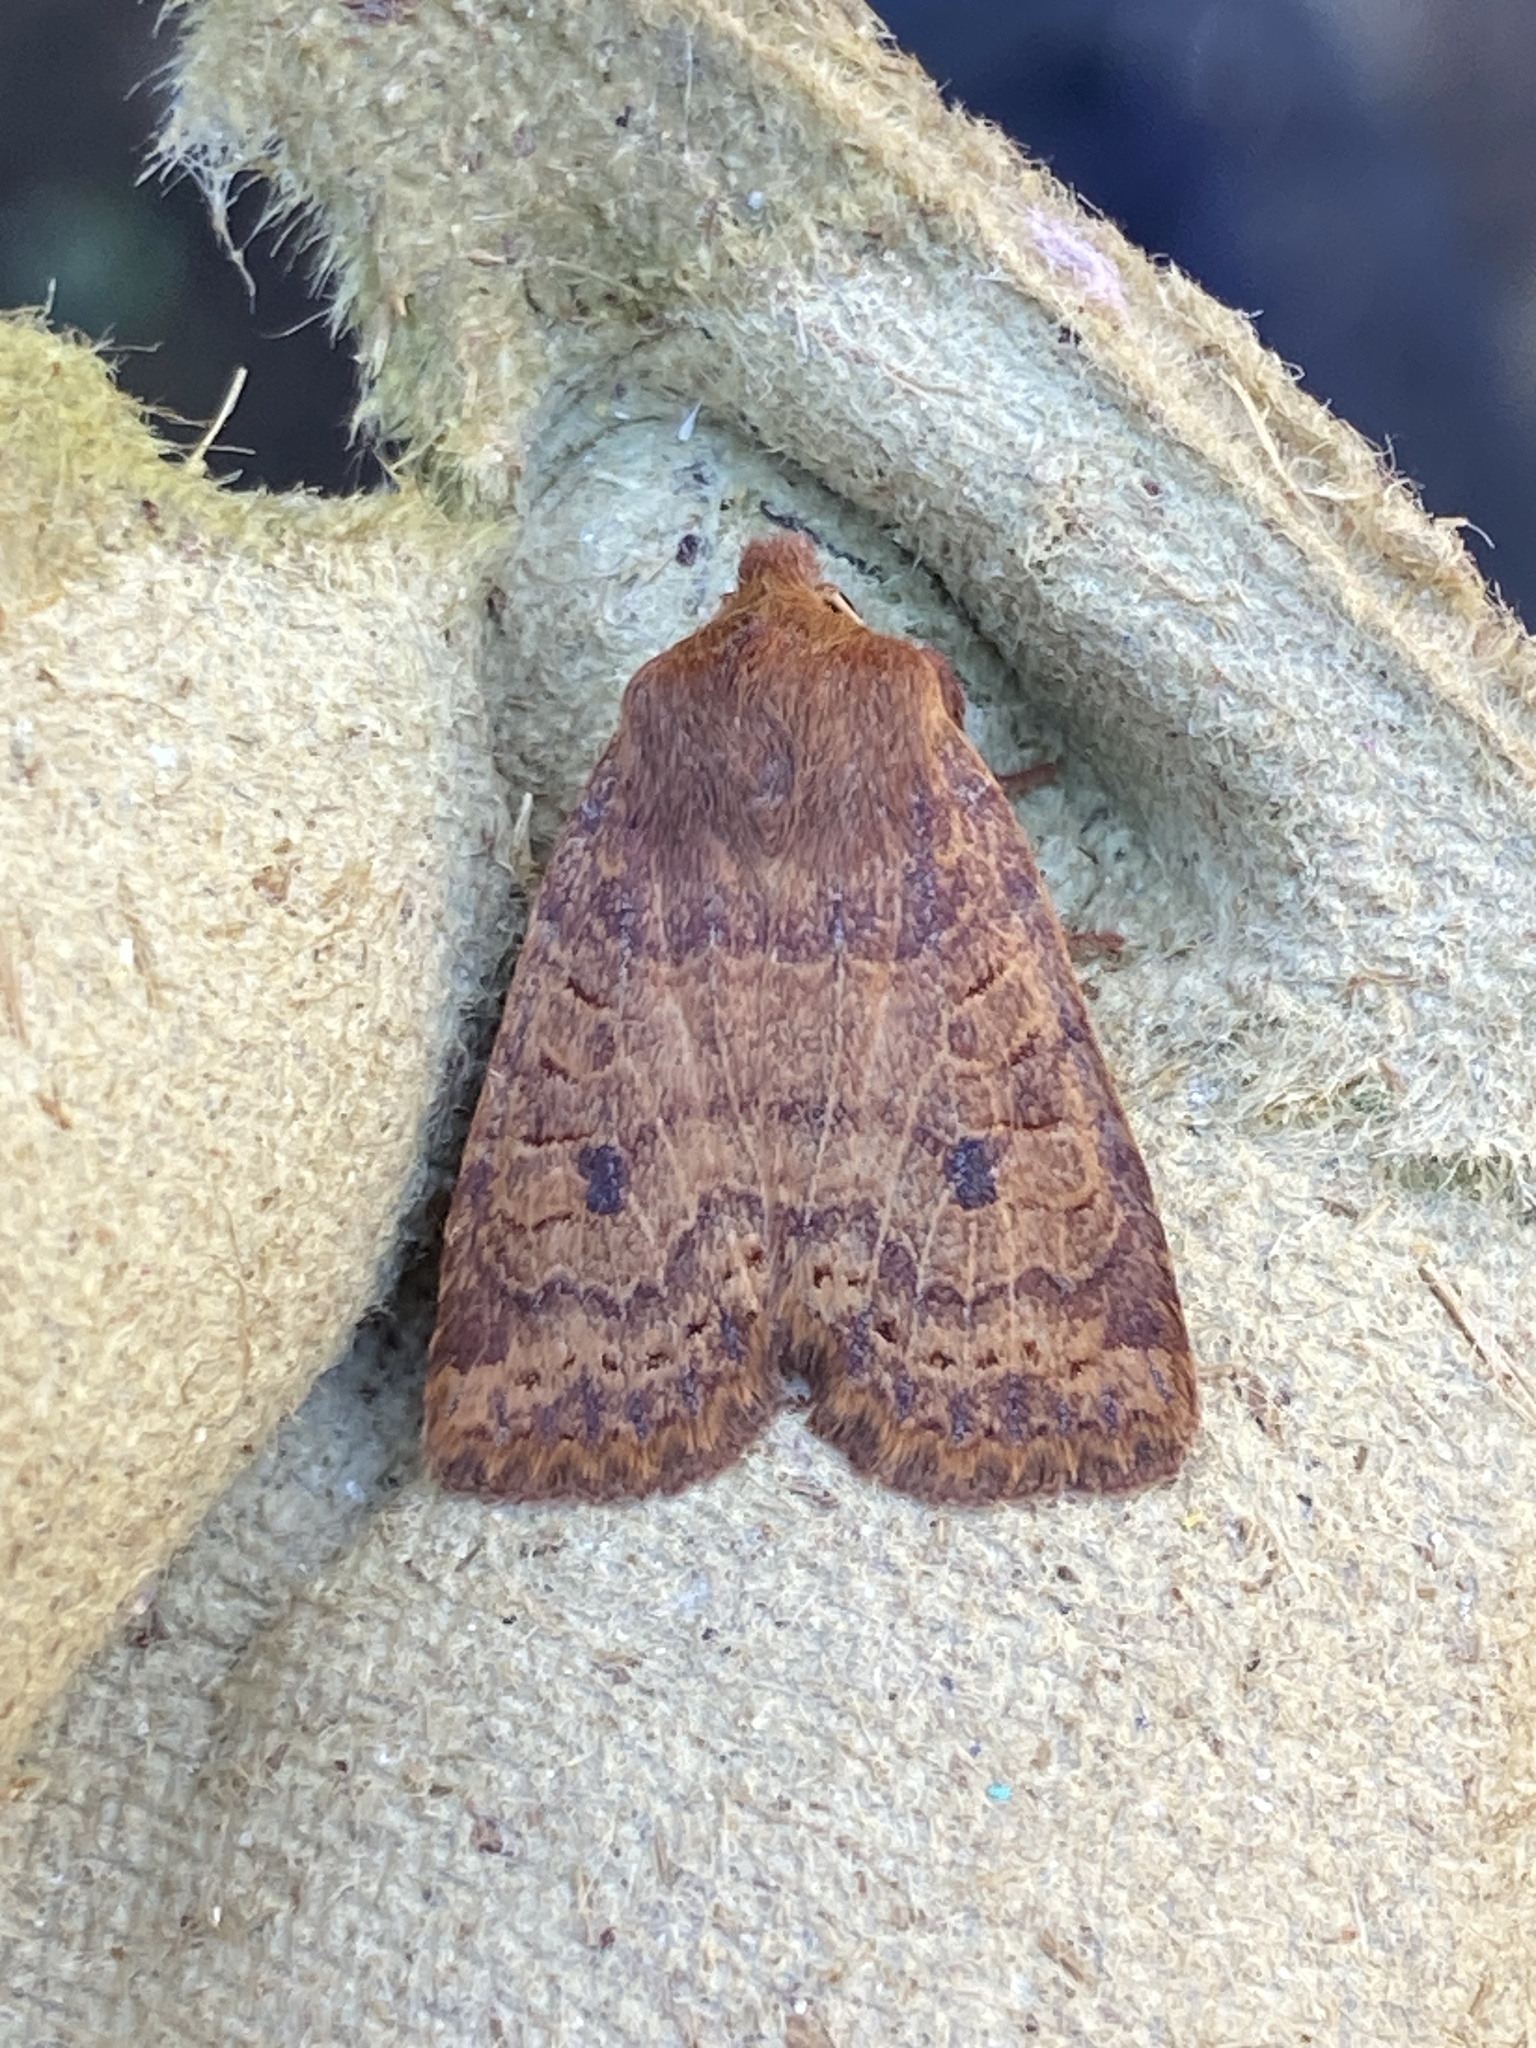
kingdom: Animalia
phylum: Arthropoda
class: Insecta
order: Lepidoptera
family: Noctuidae
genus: Conistra
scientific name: Conistra vaccinii
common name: Chestnut
